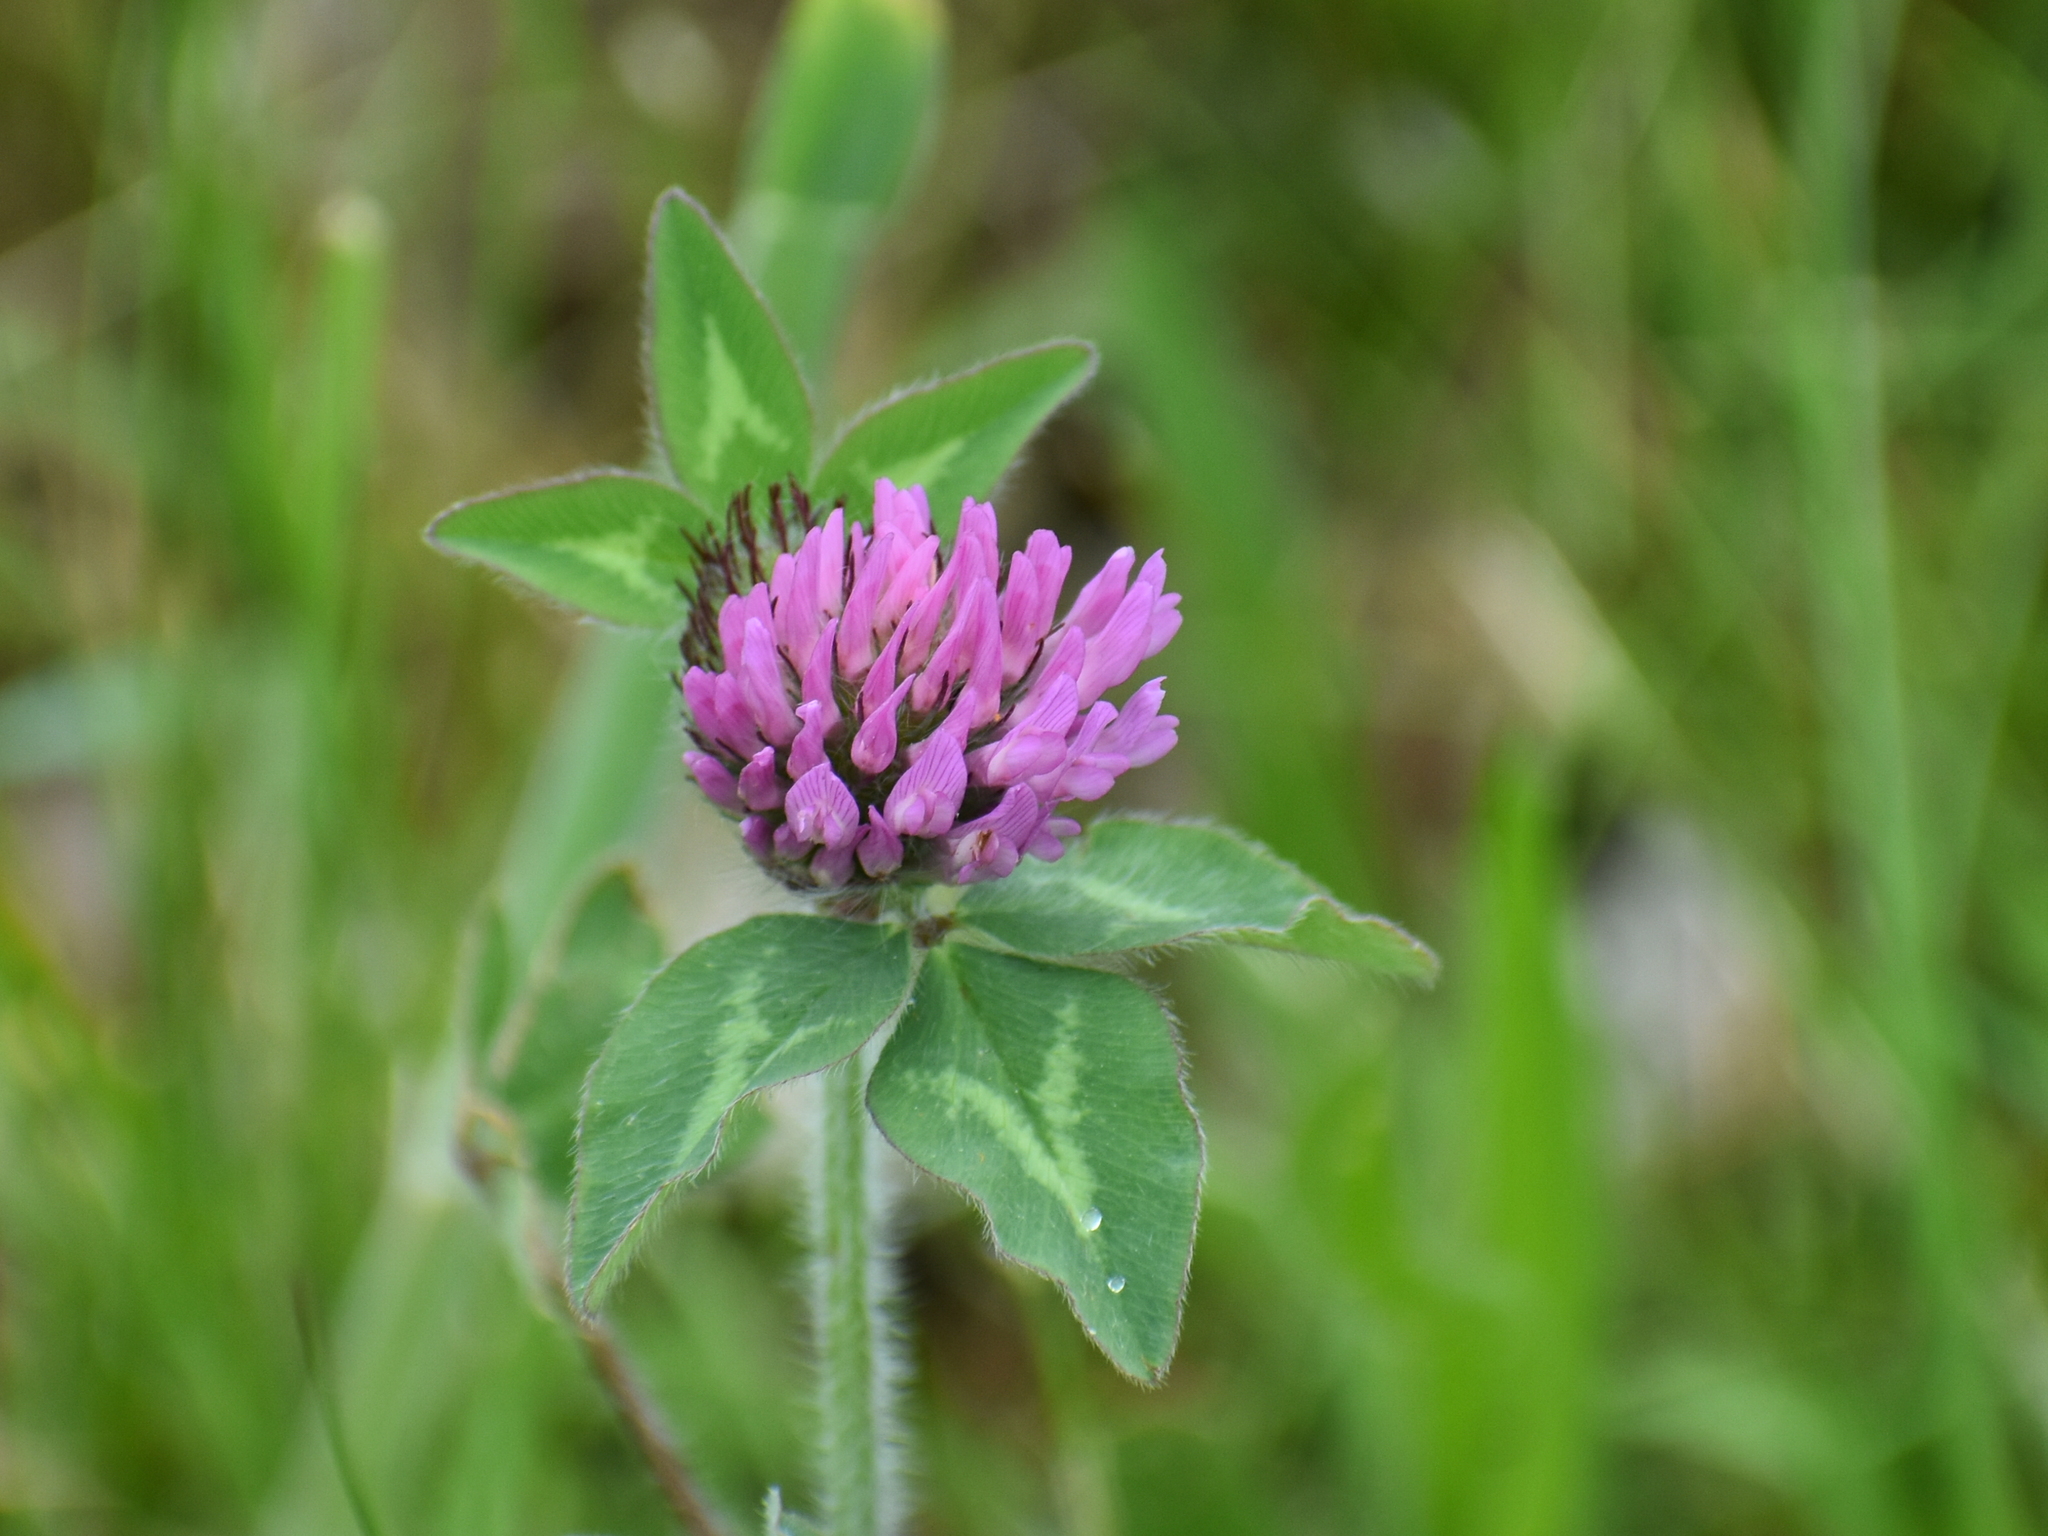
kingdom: Plantae
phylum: Tracheophyta
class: Magnoliopsida
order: Fabales
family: Fabaceae
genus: Trifolium
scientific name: Trifolium pratense
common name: Red clover
